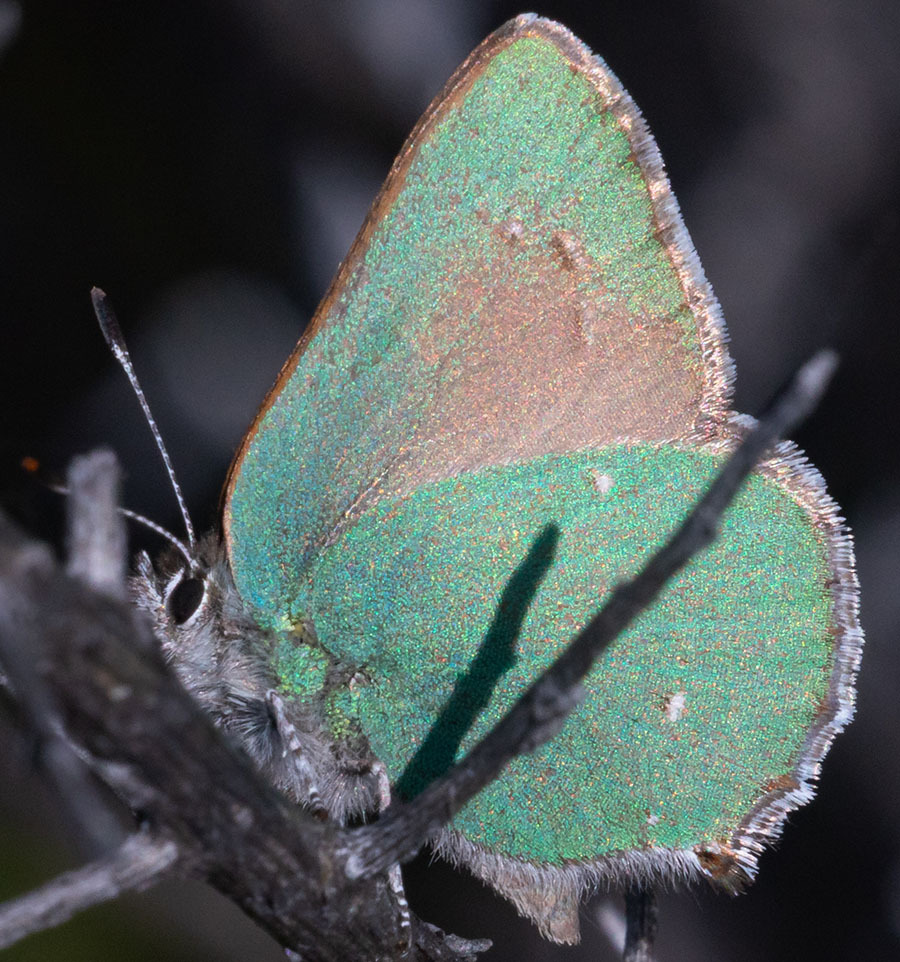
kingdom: Animalia
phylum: Arthropoda
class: Insecta
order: Lepidoptera
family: Lycaenidae
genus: Callophrys
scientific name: Callophrys dumetorum
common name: Bramble hairstreak
